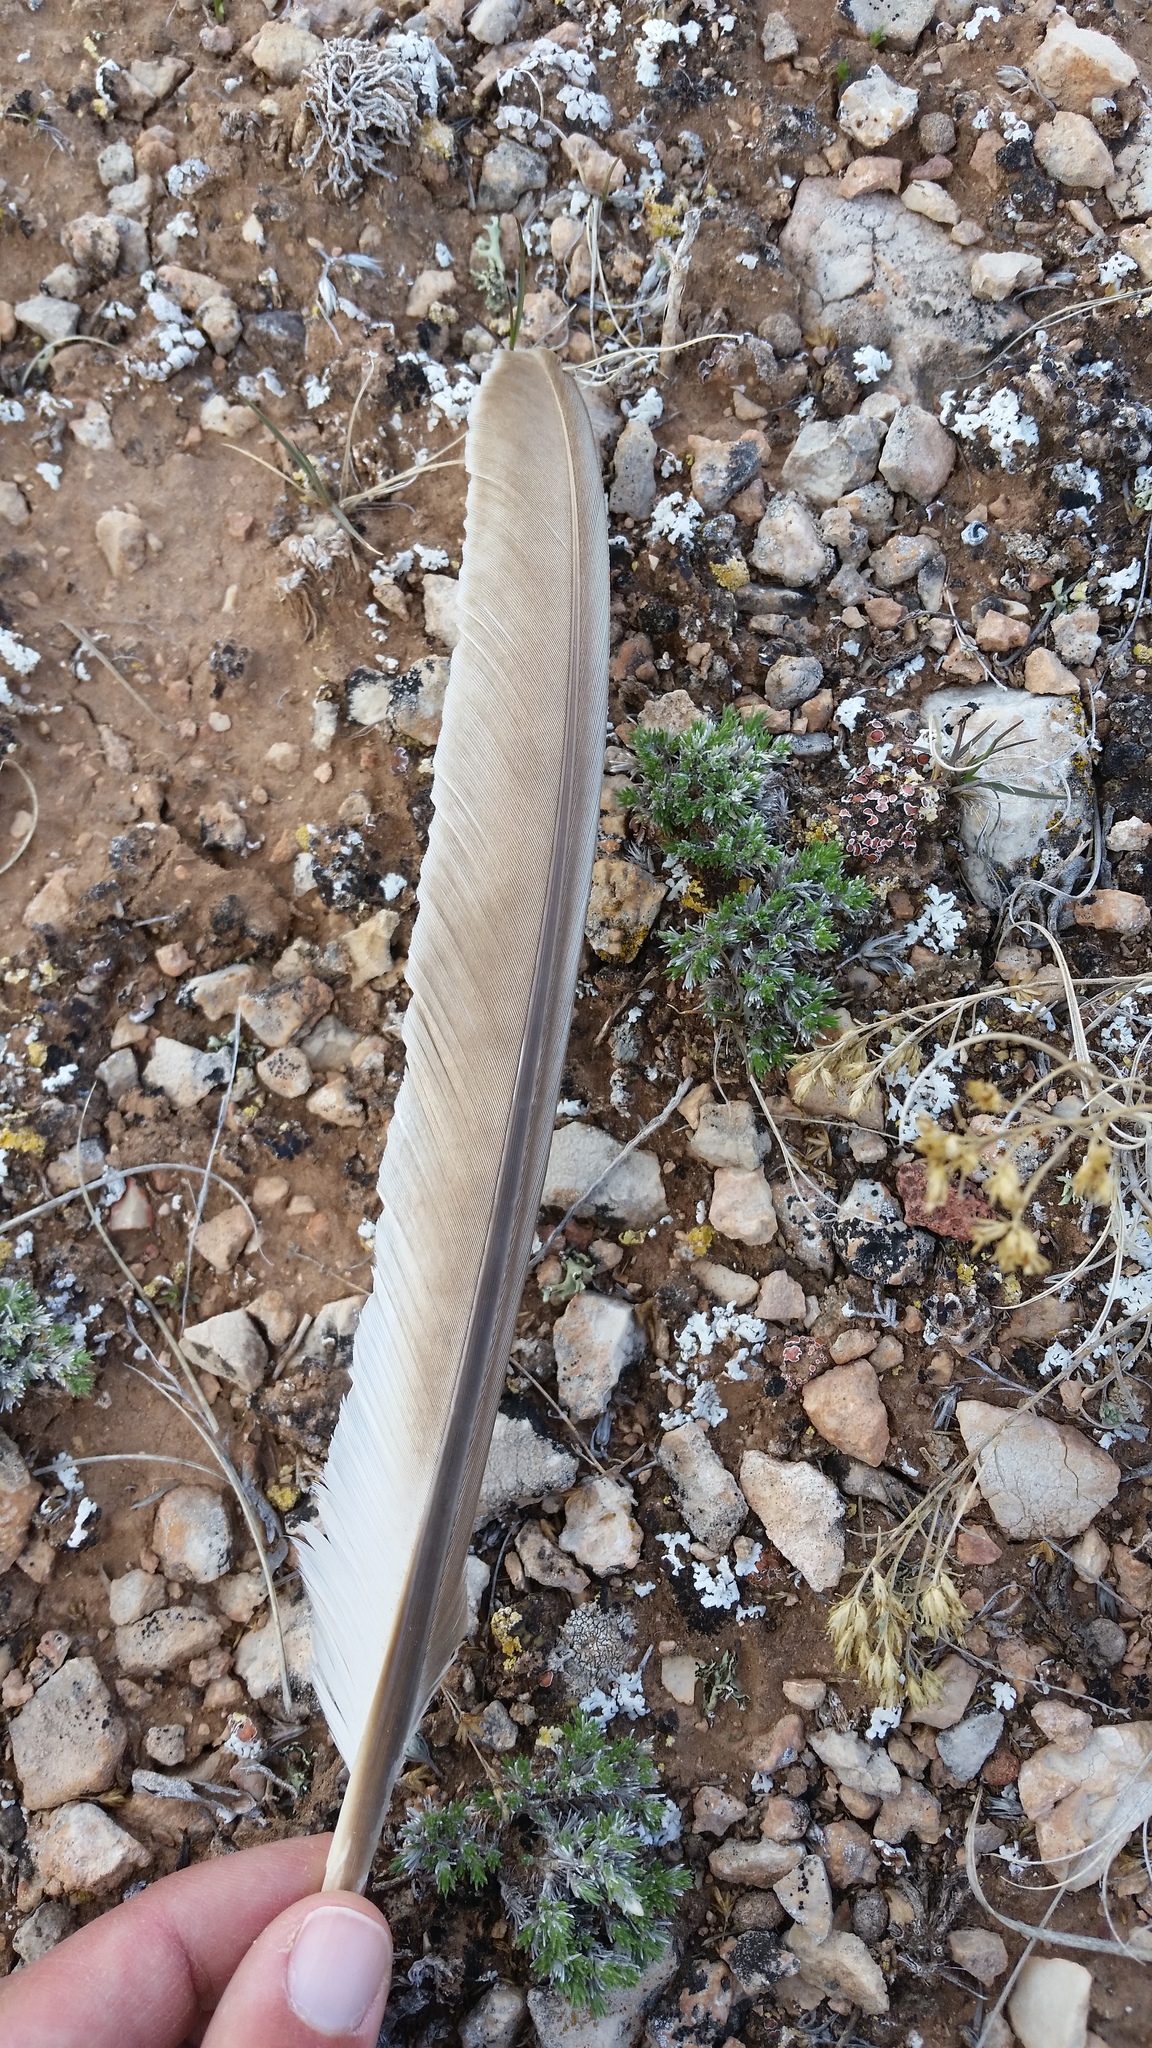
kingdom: Animalia
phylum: Chordata
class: Aves
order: Galliformes
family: Phasianidae
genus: Centrocercus
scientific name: Centrocercus urophasianus
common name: Sage grouse
